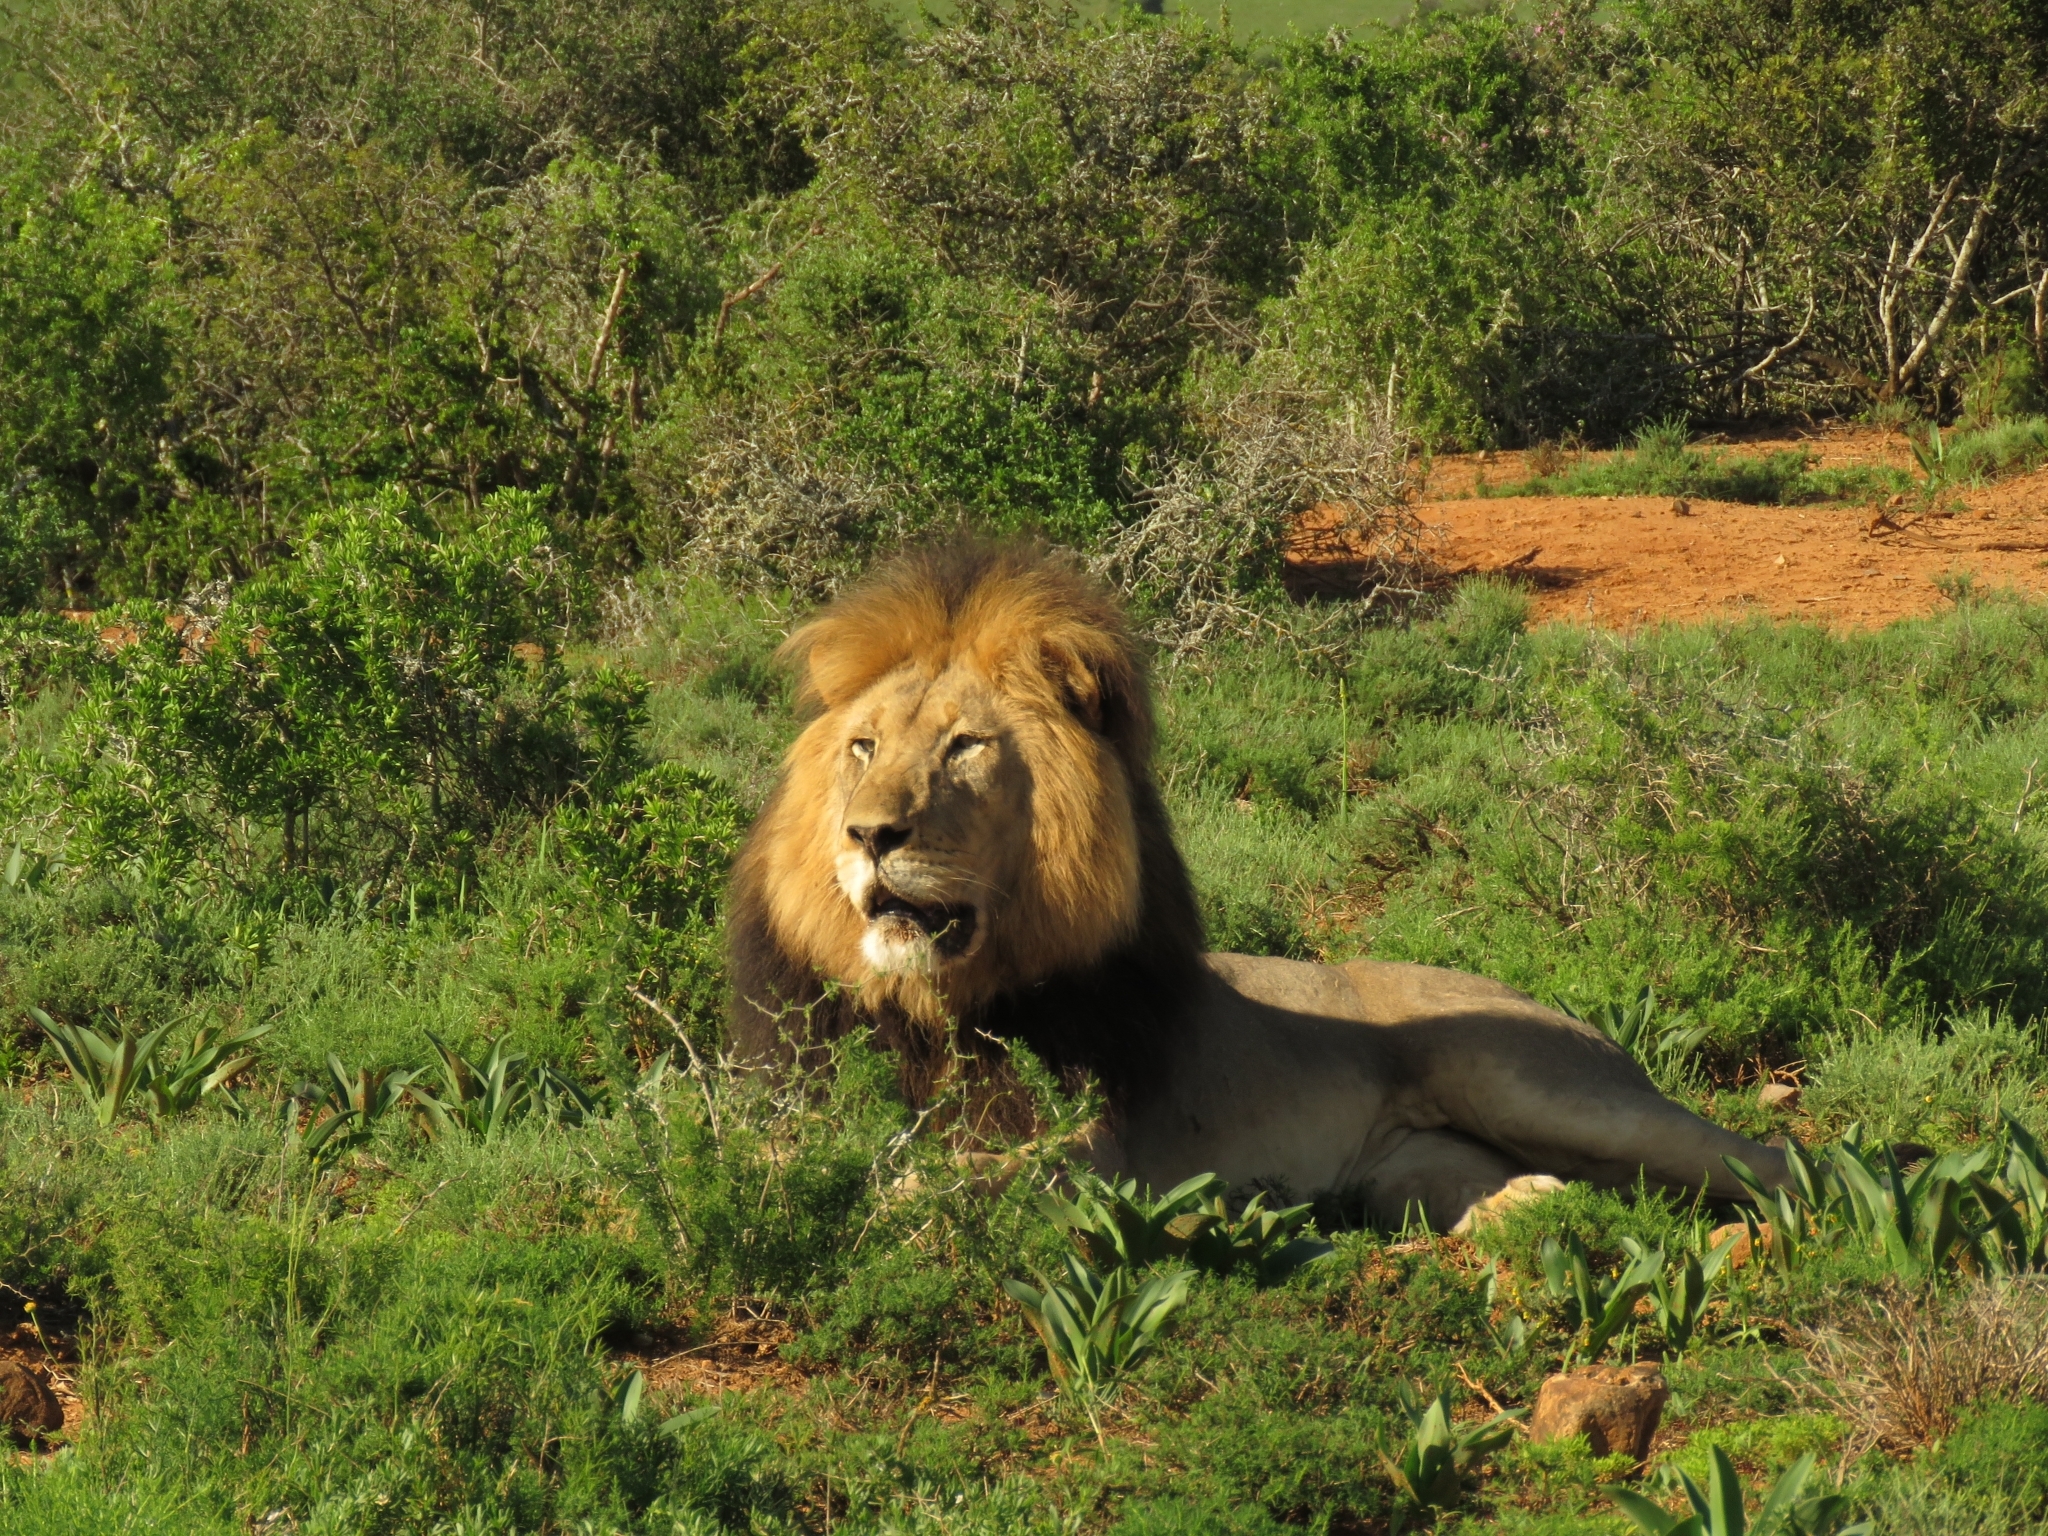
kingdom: Animalia
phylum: Chordata
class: Mammalia
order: Carnivora
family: Felidae
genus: Panthera
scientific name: Panthera leo
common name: Lion
